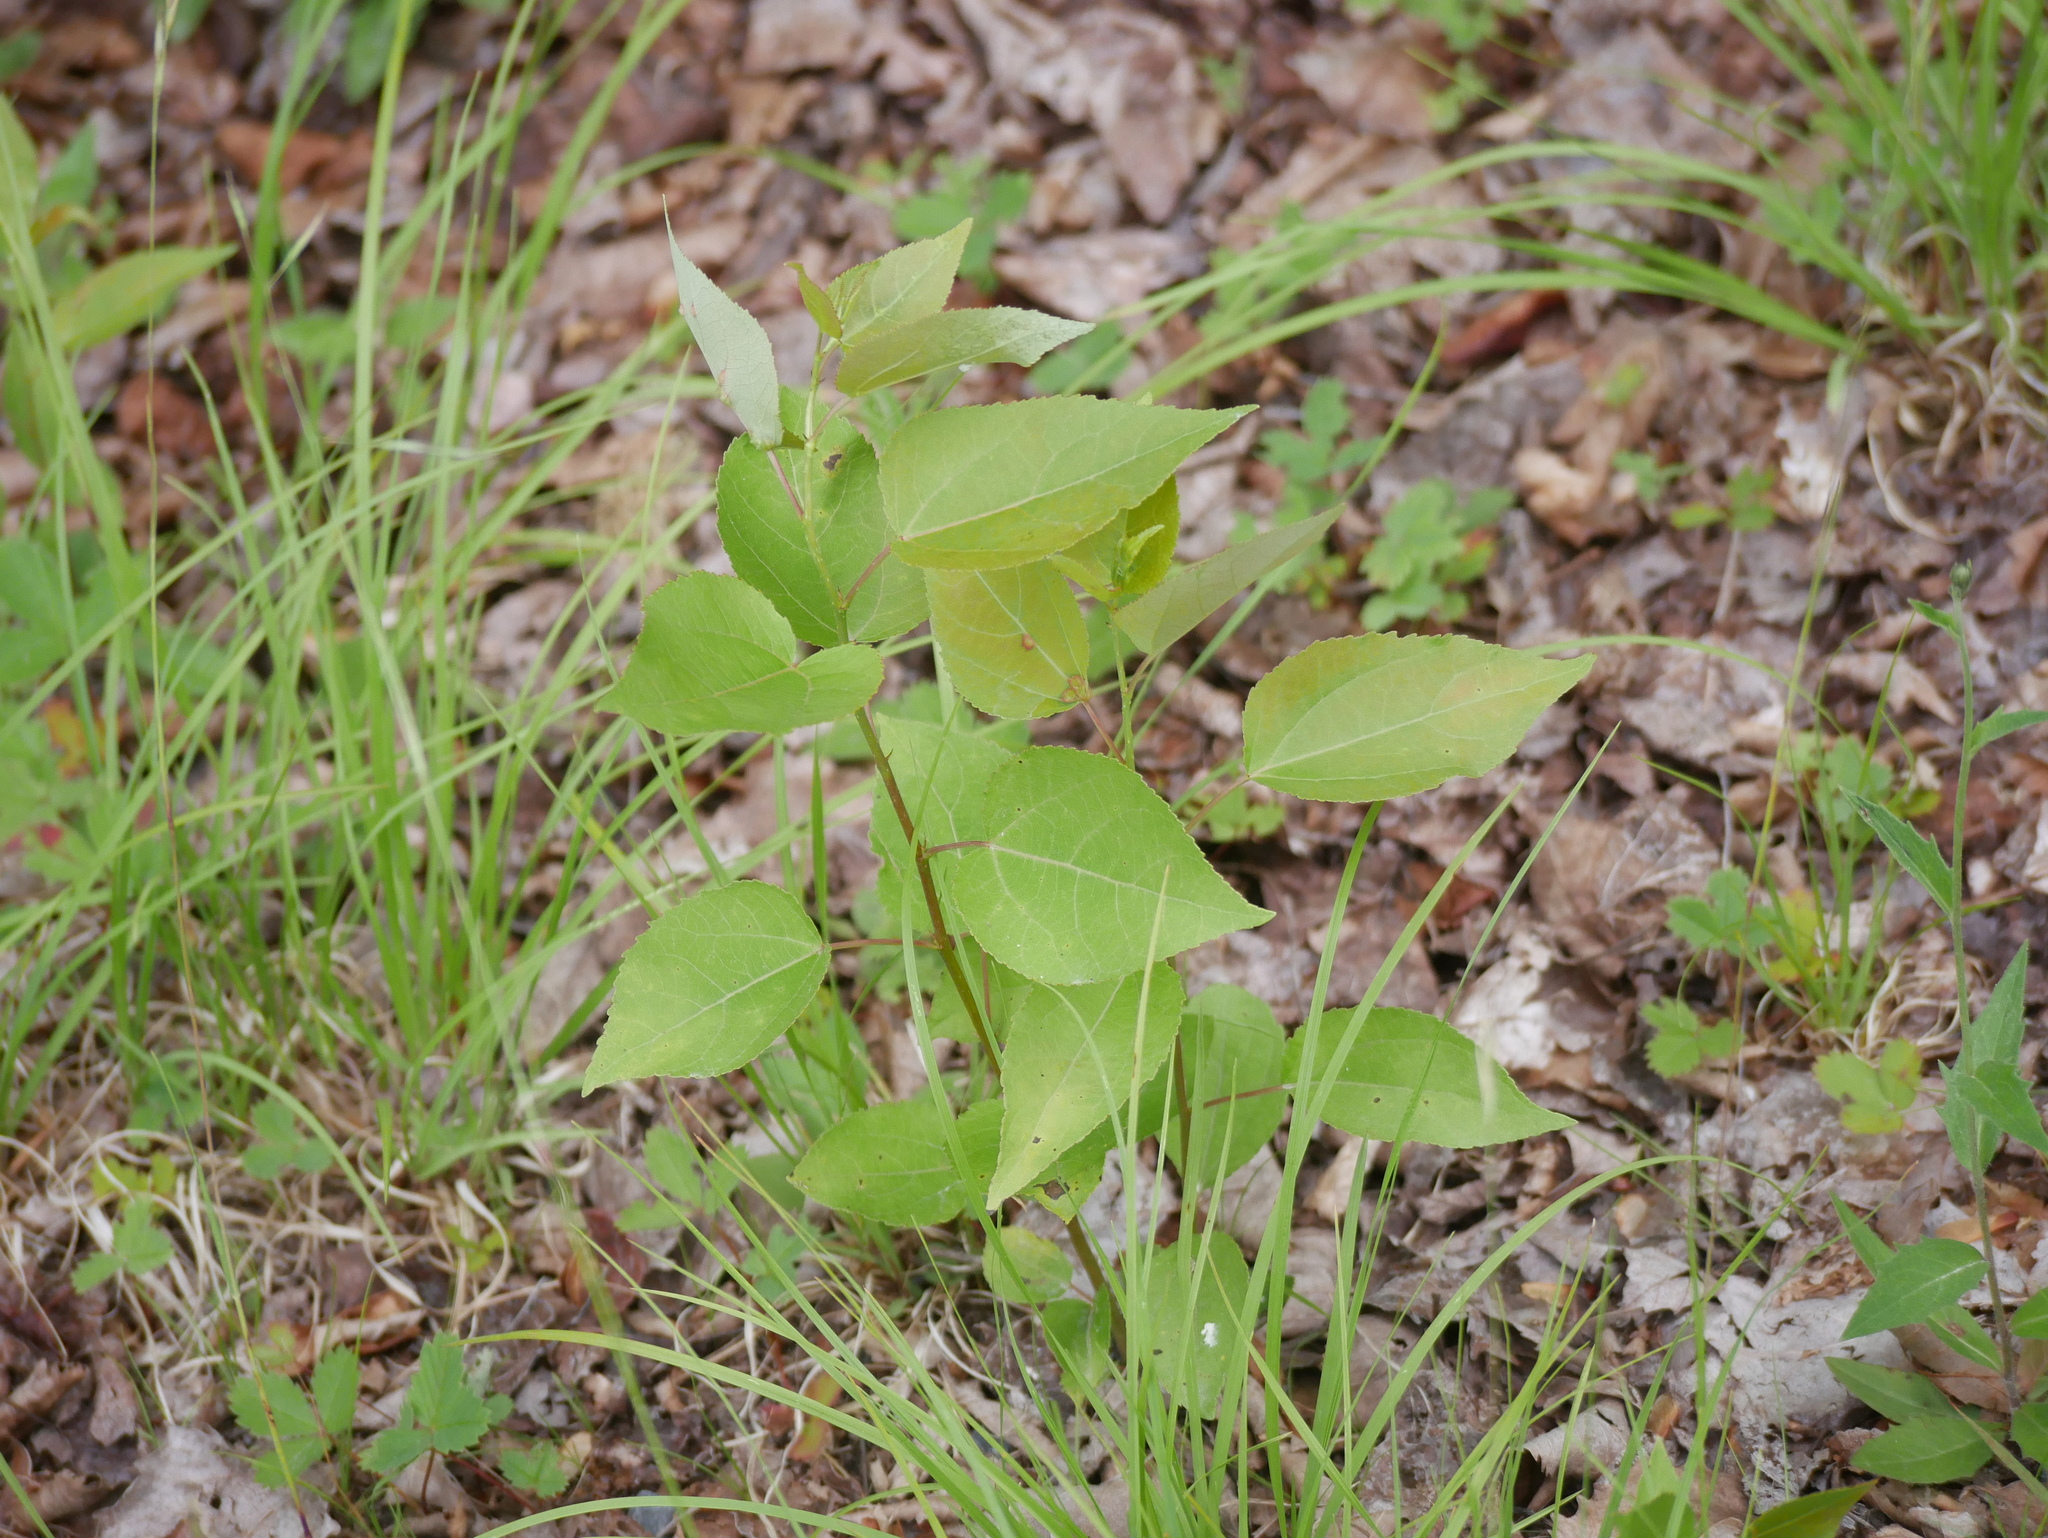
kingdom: Plantae
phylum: Tracheophyta
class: Magnoliopsida
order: Malpighiales
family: Salicaceae
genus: Populus
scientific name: Populus tremuloides
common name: Quaking aspen
